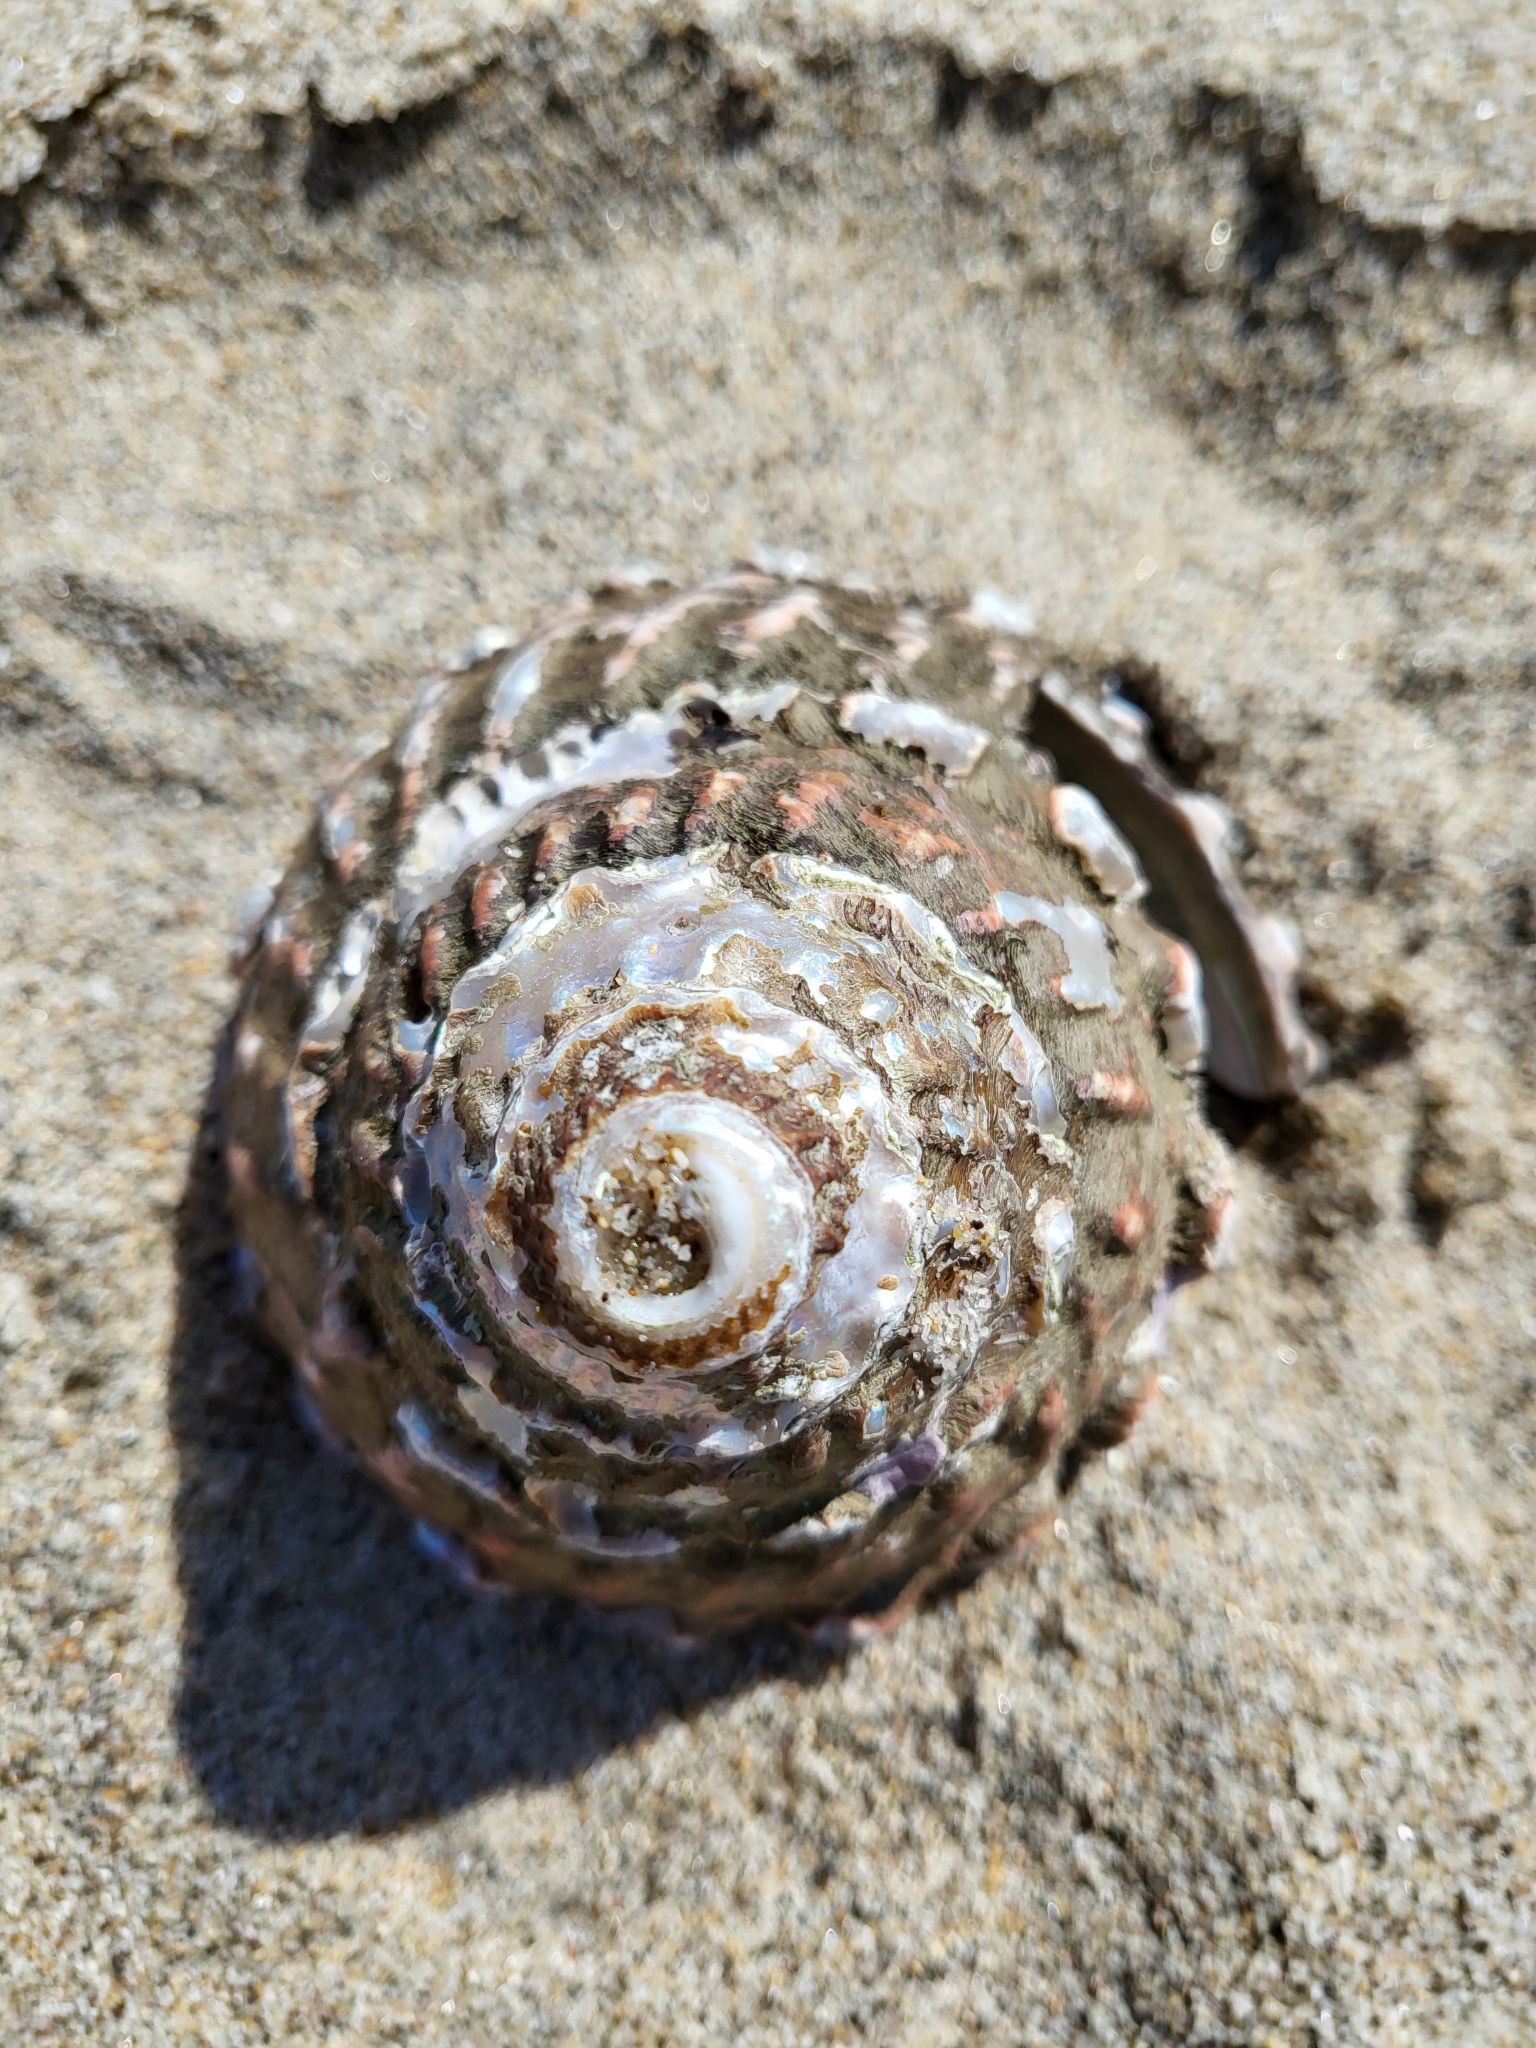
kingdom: Animalia
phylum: Mollusca
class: Gastropoda
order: Trochida
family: Turbinidae
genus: Megastraea
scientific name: Megastraea undosa
